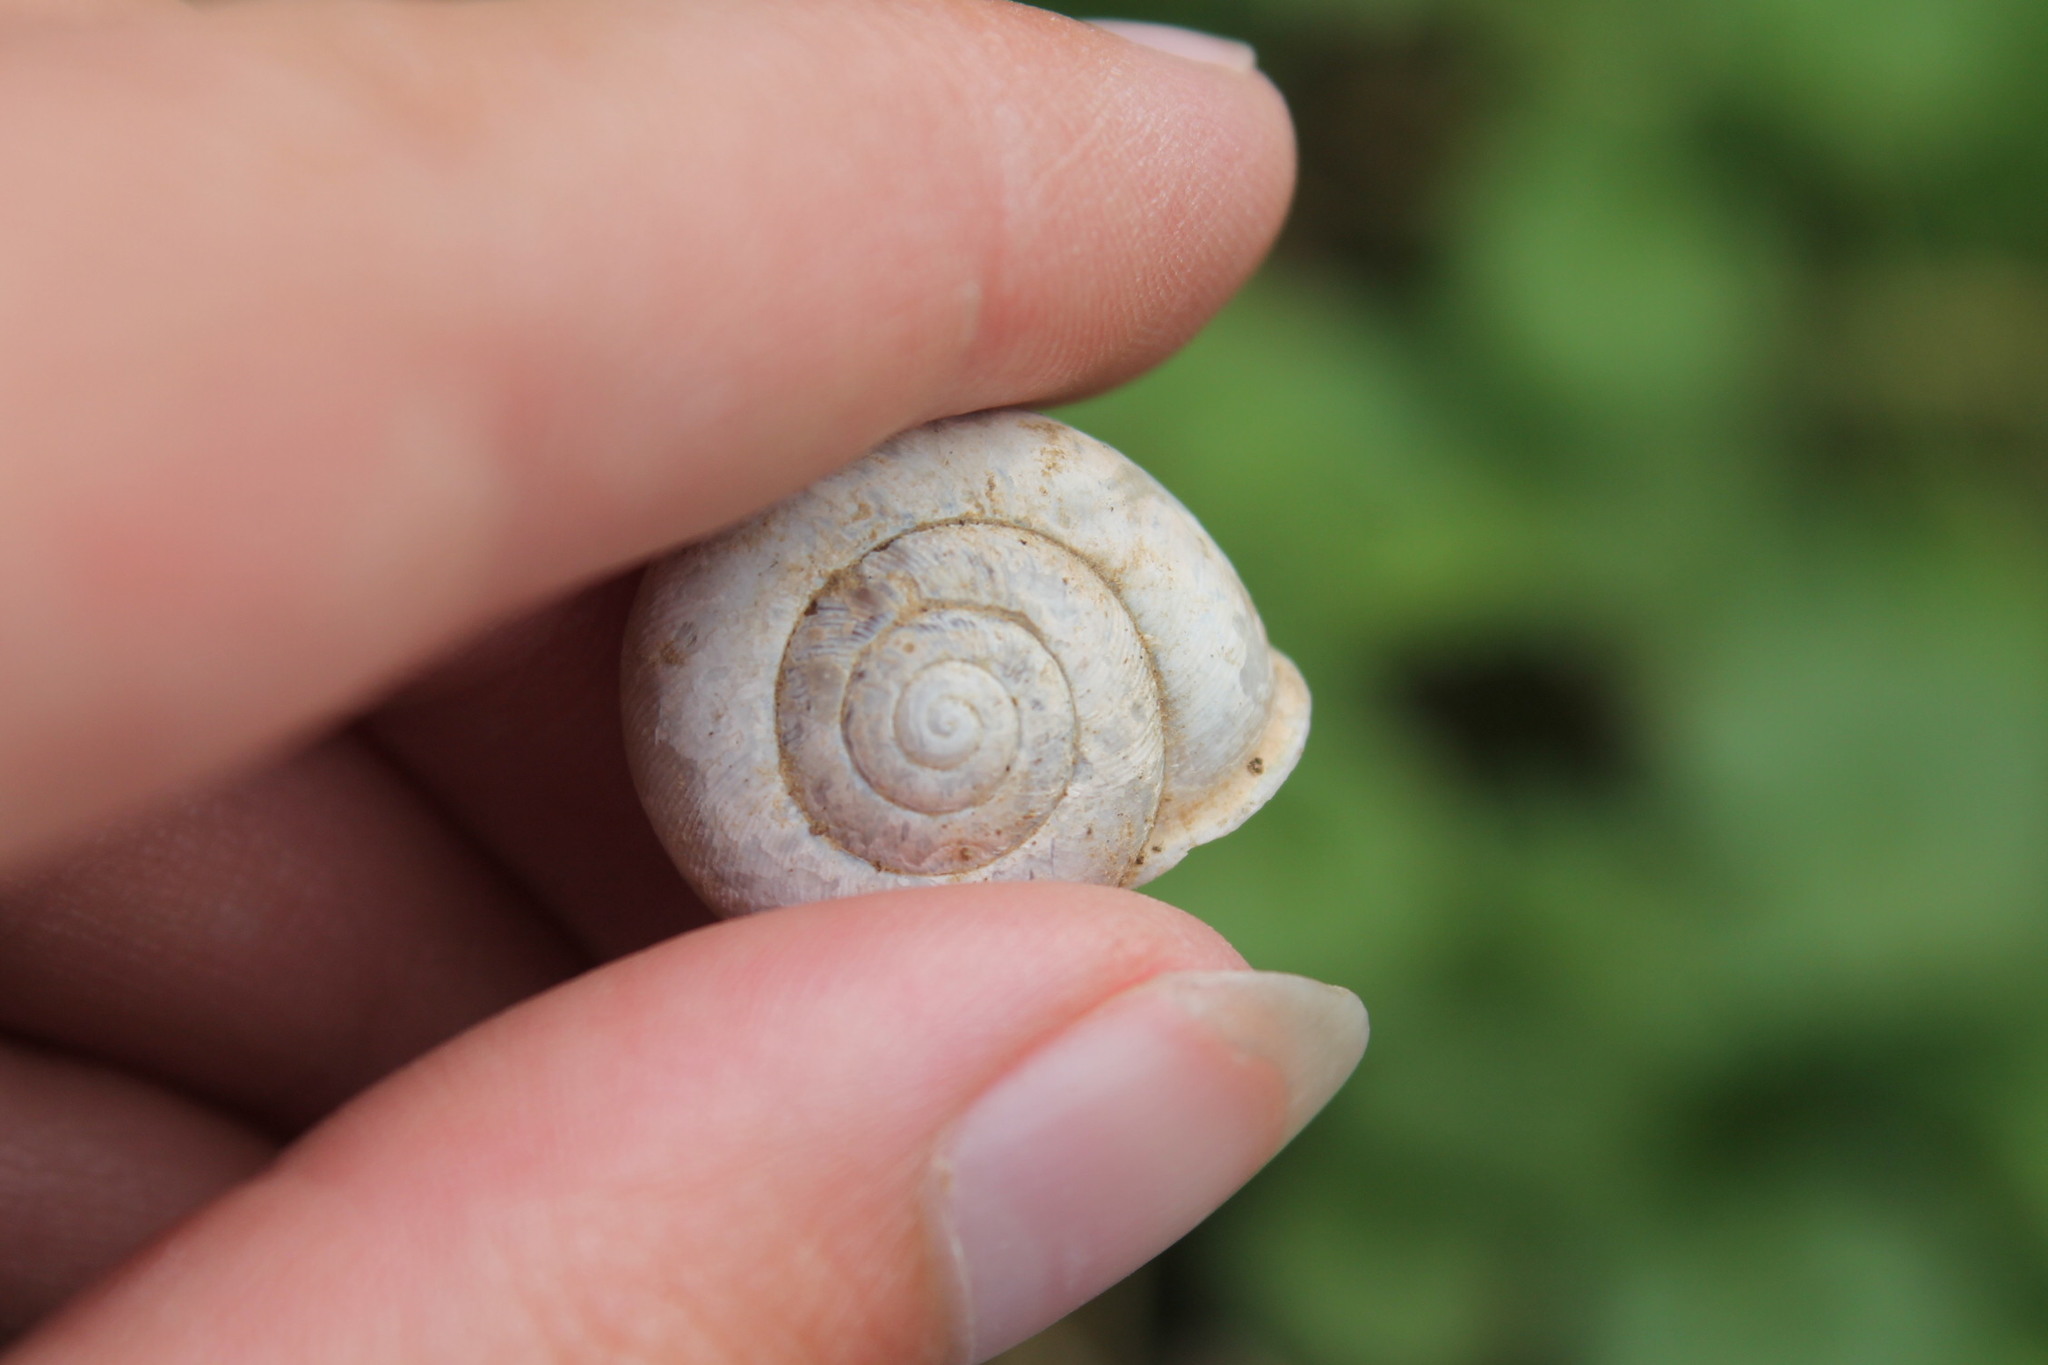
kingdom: Animalia
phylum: Mollusca
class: Gastropoda
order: Stylommatophora
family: Polygyridae
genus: Mesodon
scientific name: Mesodon thyroidus
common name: White-lip globe
